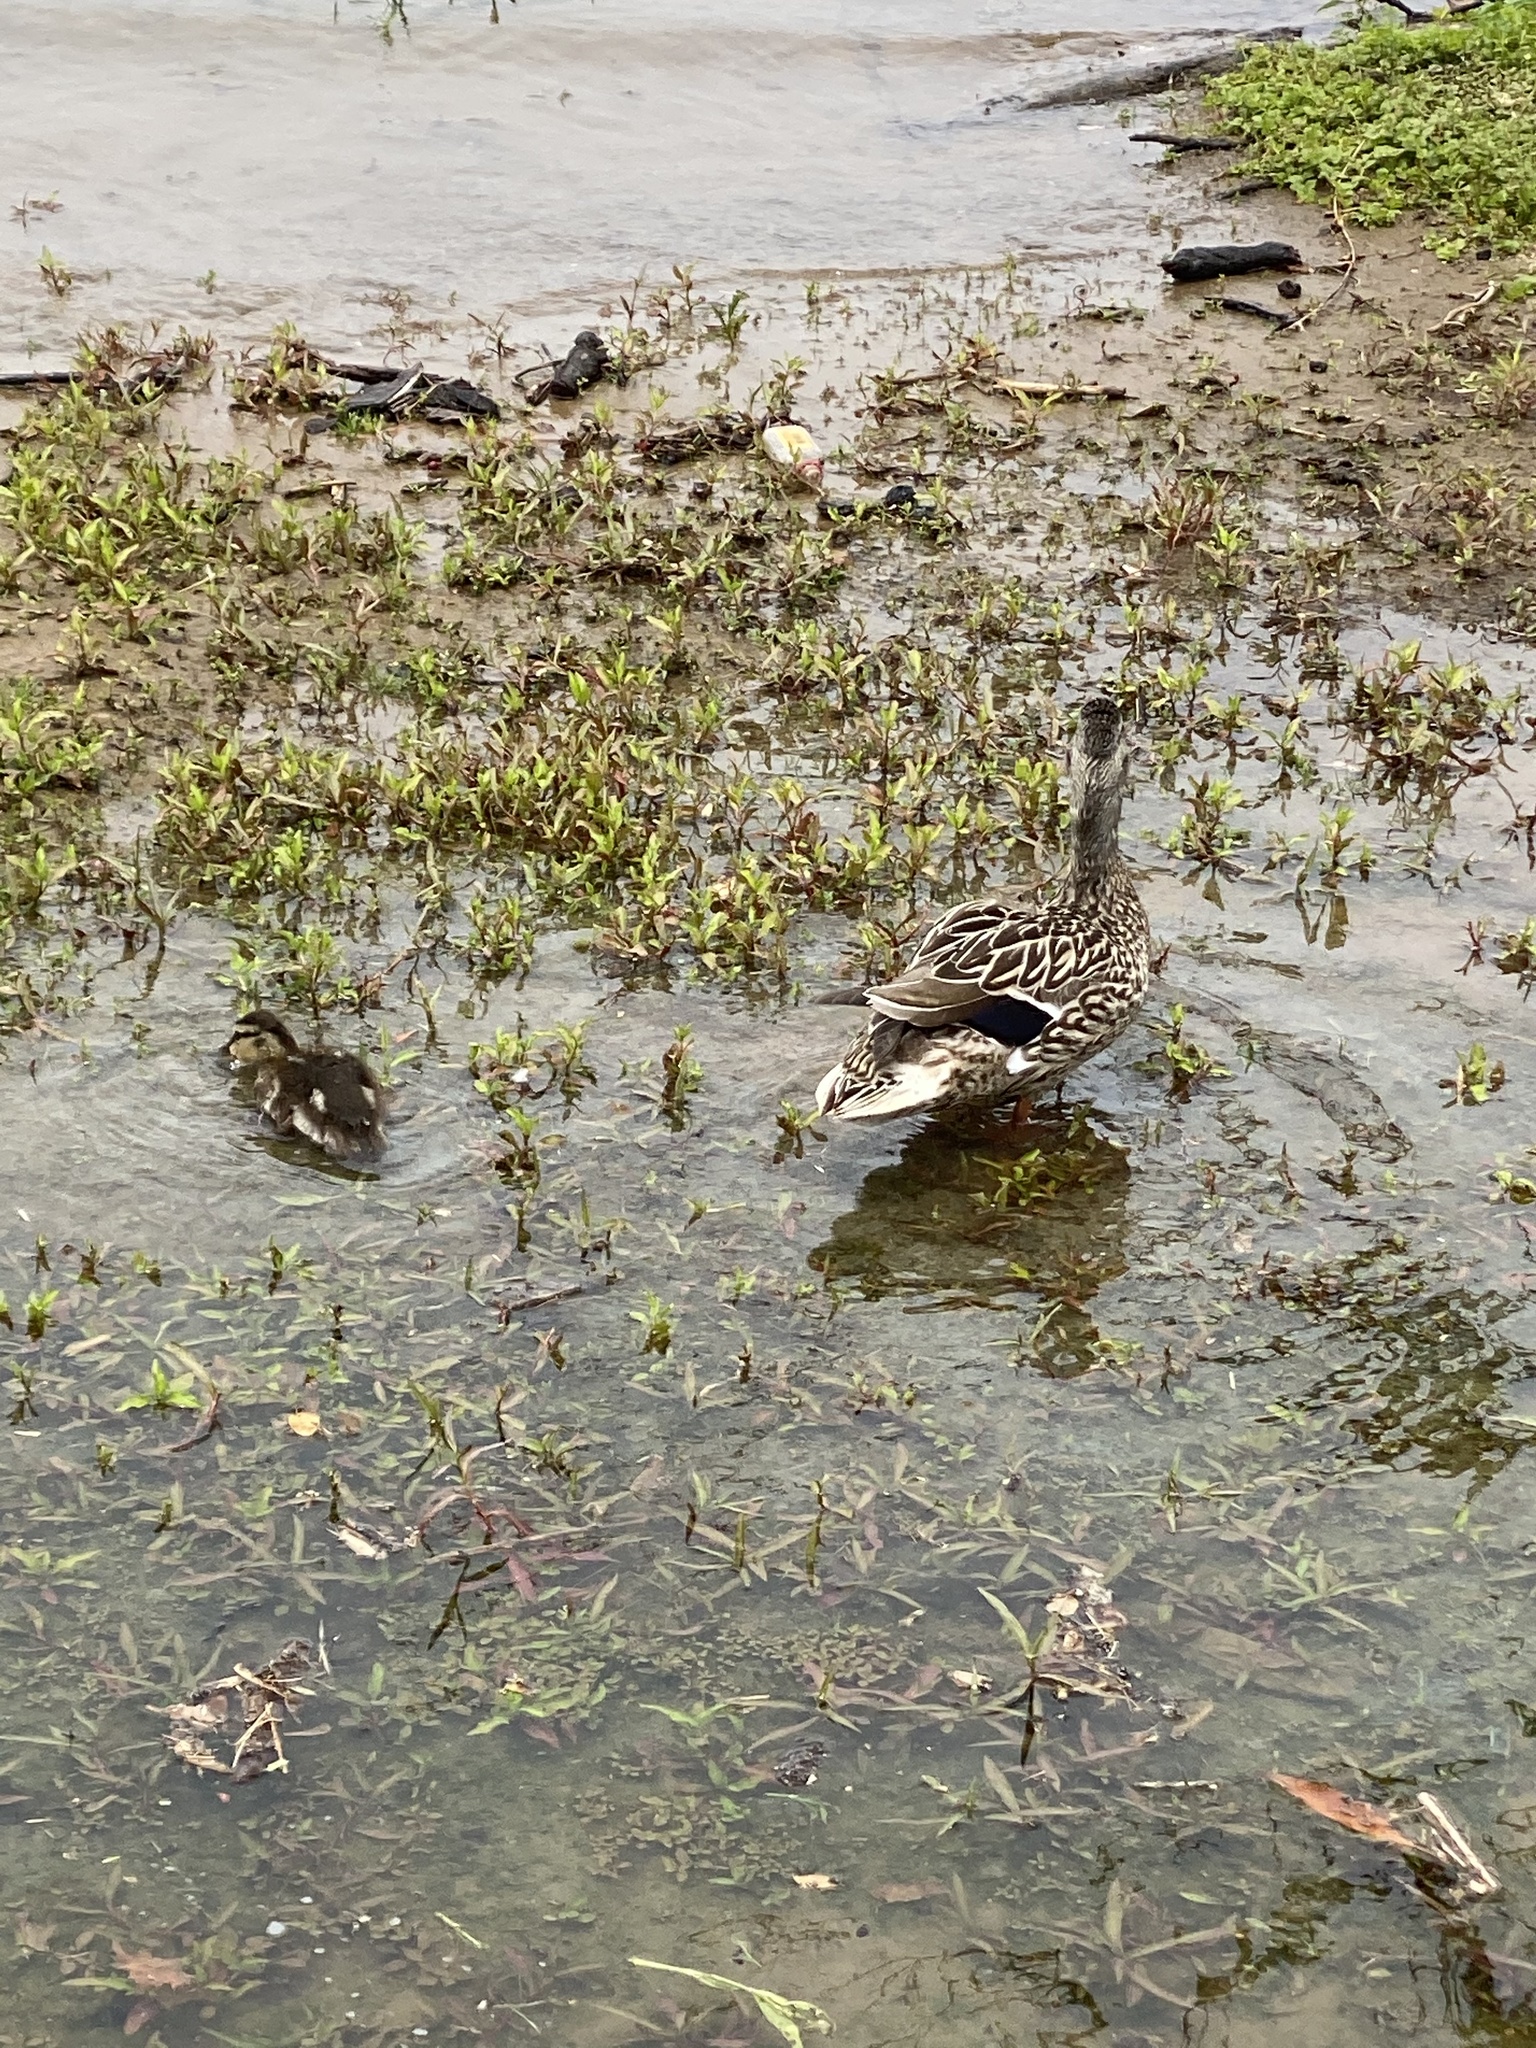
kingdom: Animalia
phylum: Chordata
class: Aves
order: Anseriformes
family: Anatidae
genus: Anas
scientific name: Anas platyrhynchos
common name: Mallard
